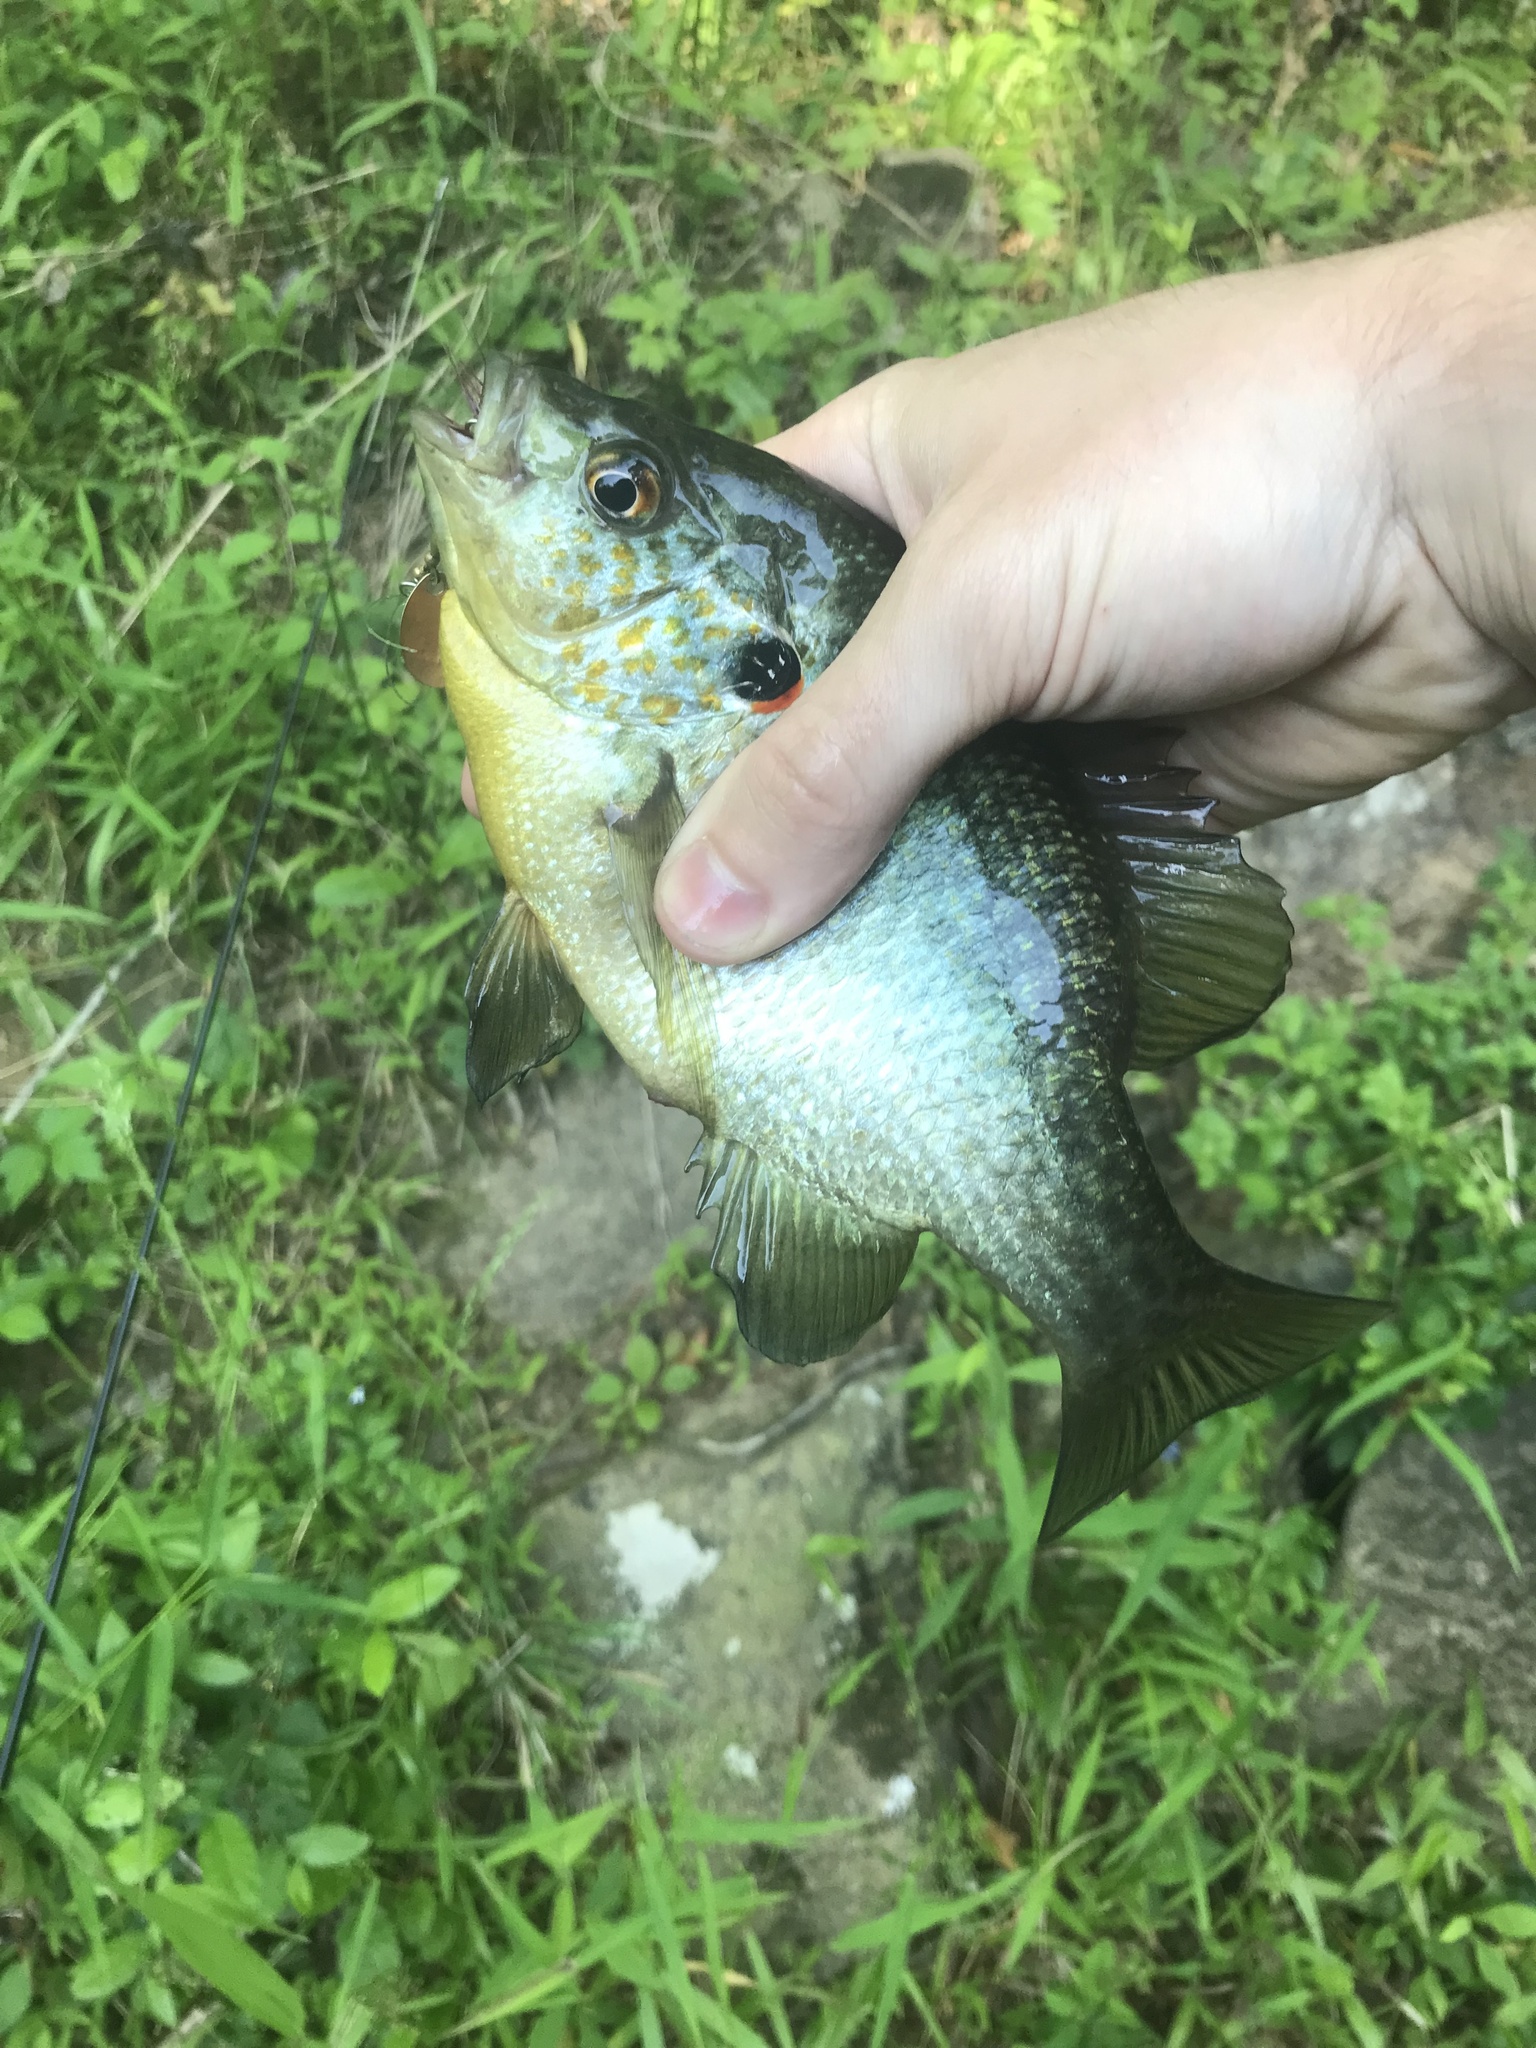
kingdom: Animalia
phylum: Chordata
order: Perciformes
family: Centrarchidae
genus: Lepomis
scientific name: Lepomis microlophus
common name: Redear sunfish
